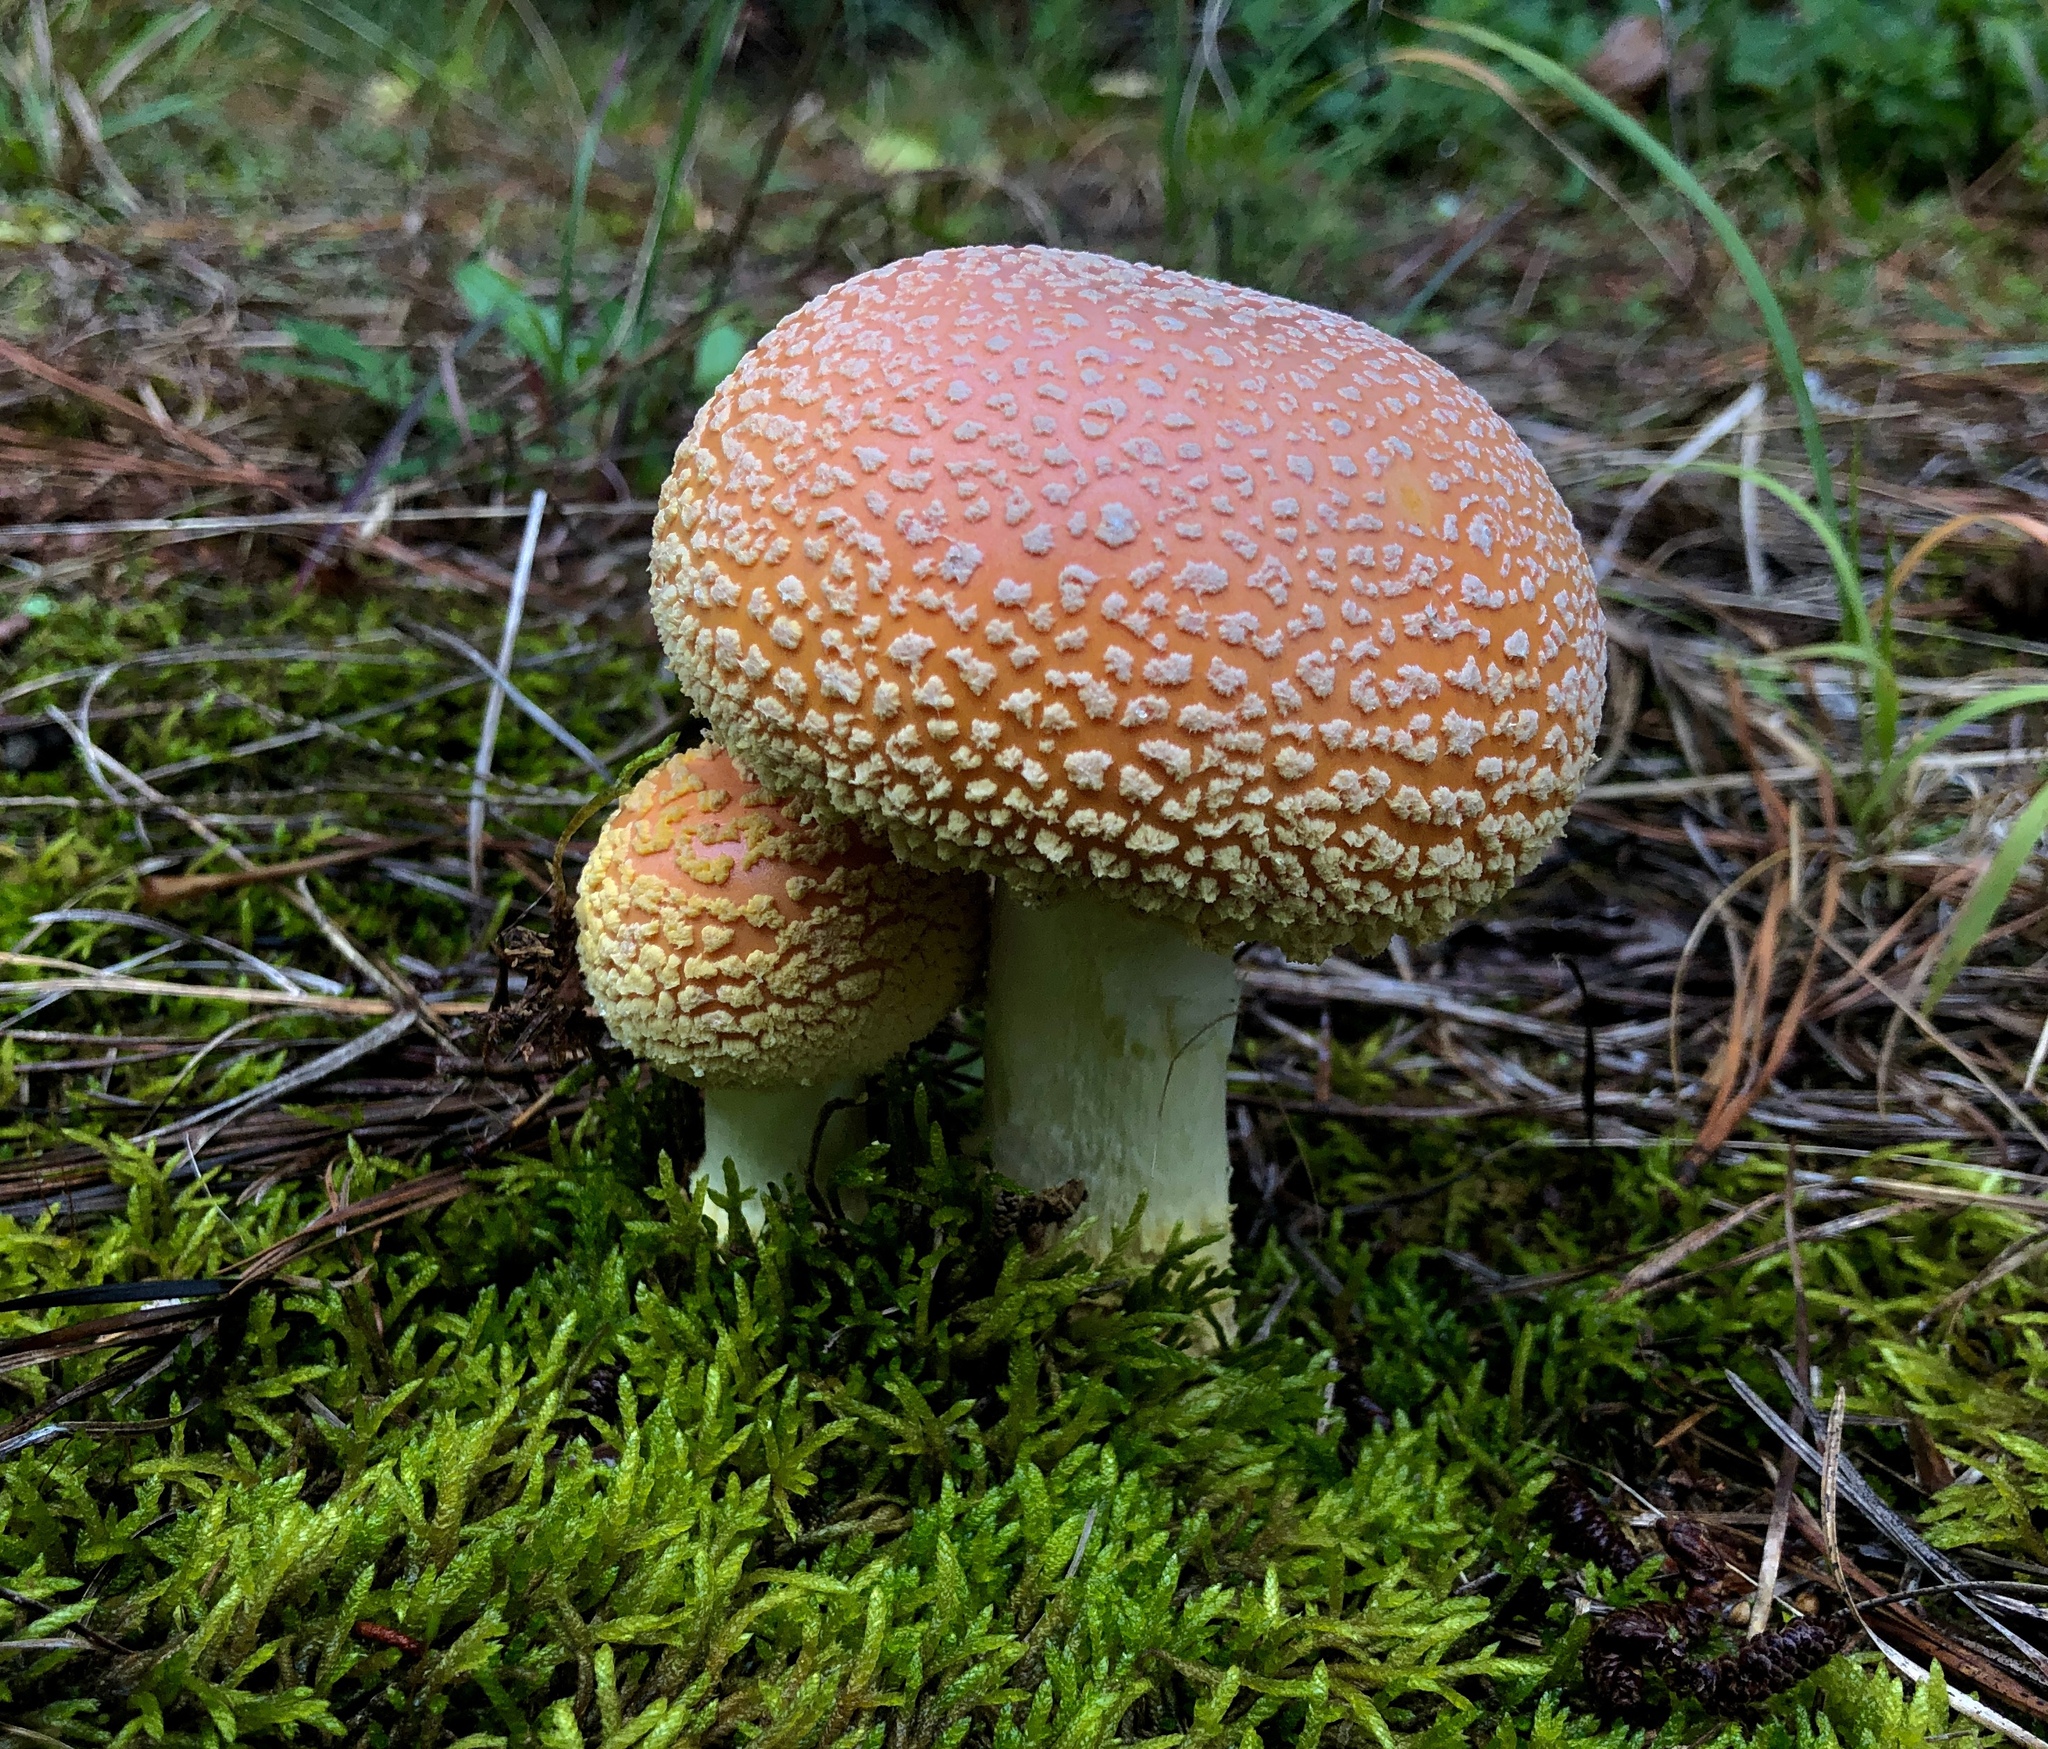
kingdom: Fungi
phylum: Basidiomycota
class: Agaricomycetes
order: Agaricales
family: Amanitaceae
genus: Amanita
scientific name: Amanita persicina
